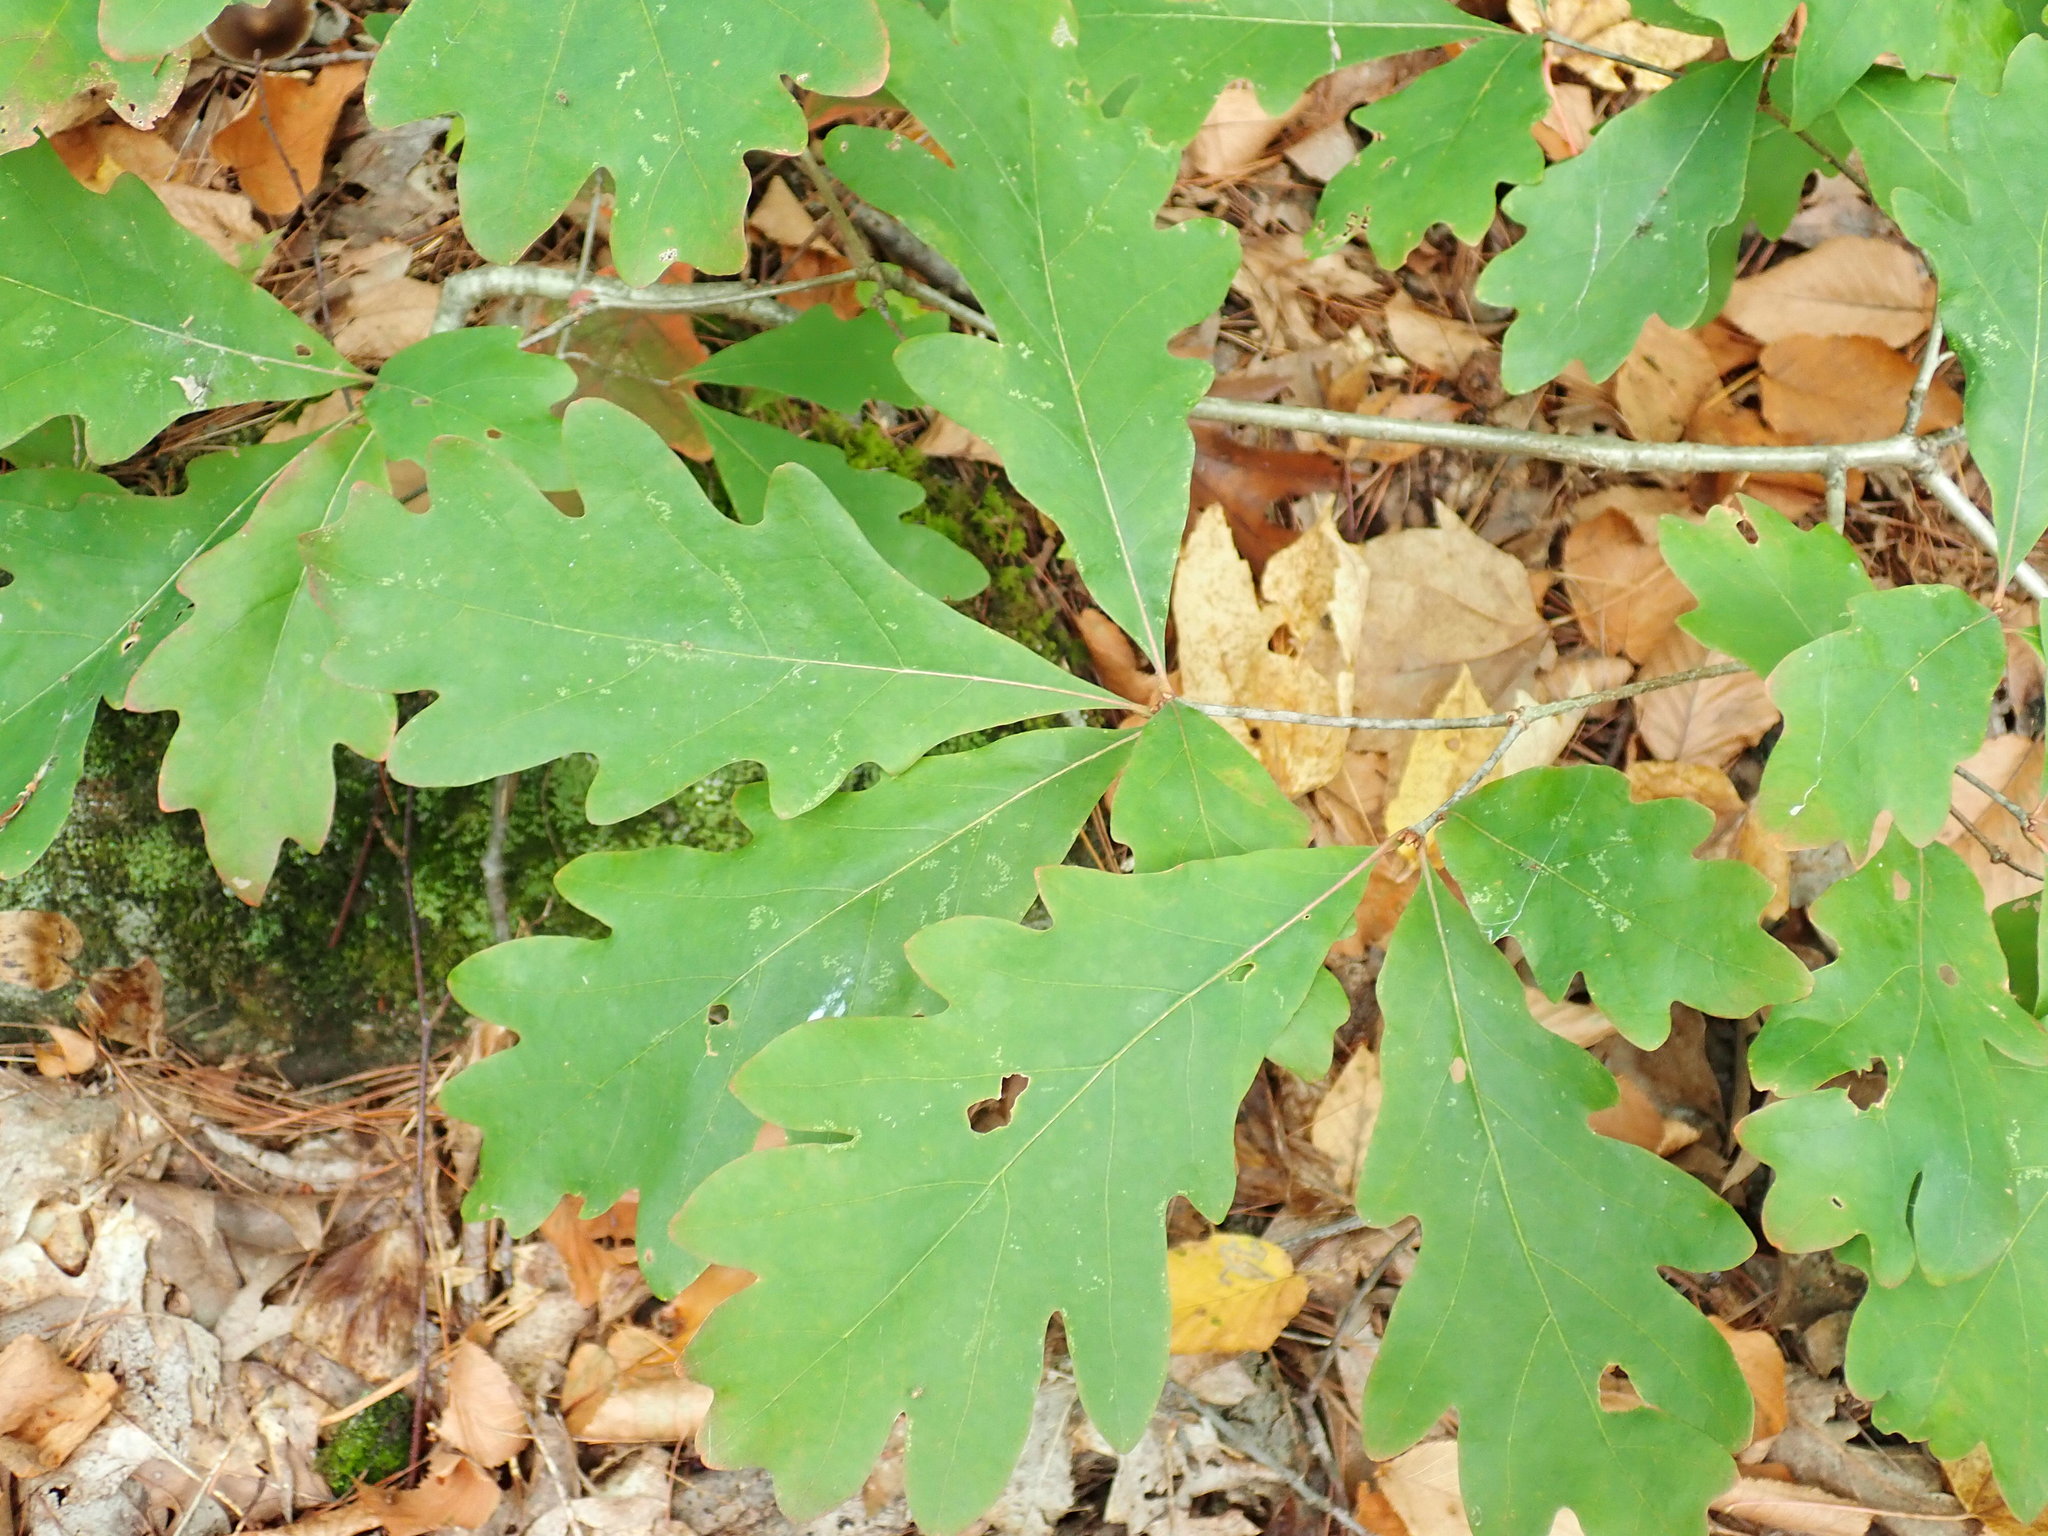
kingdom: Plantae
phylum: Tracheophyta
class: Magnoliopsida
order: Fagales
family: Fagaceae
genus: Quercus
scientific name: Quercus alba
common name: White oak
